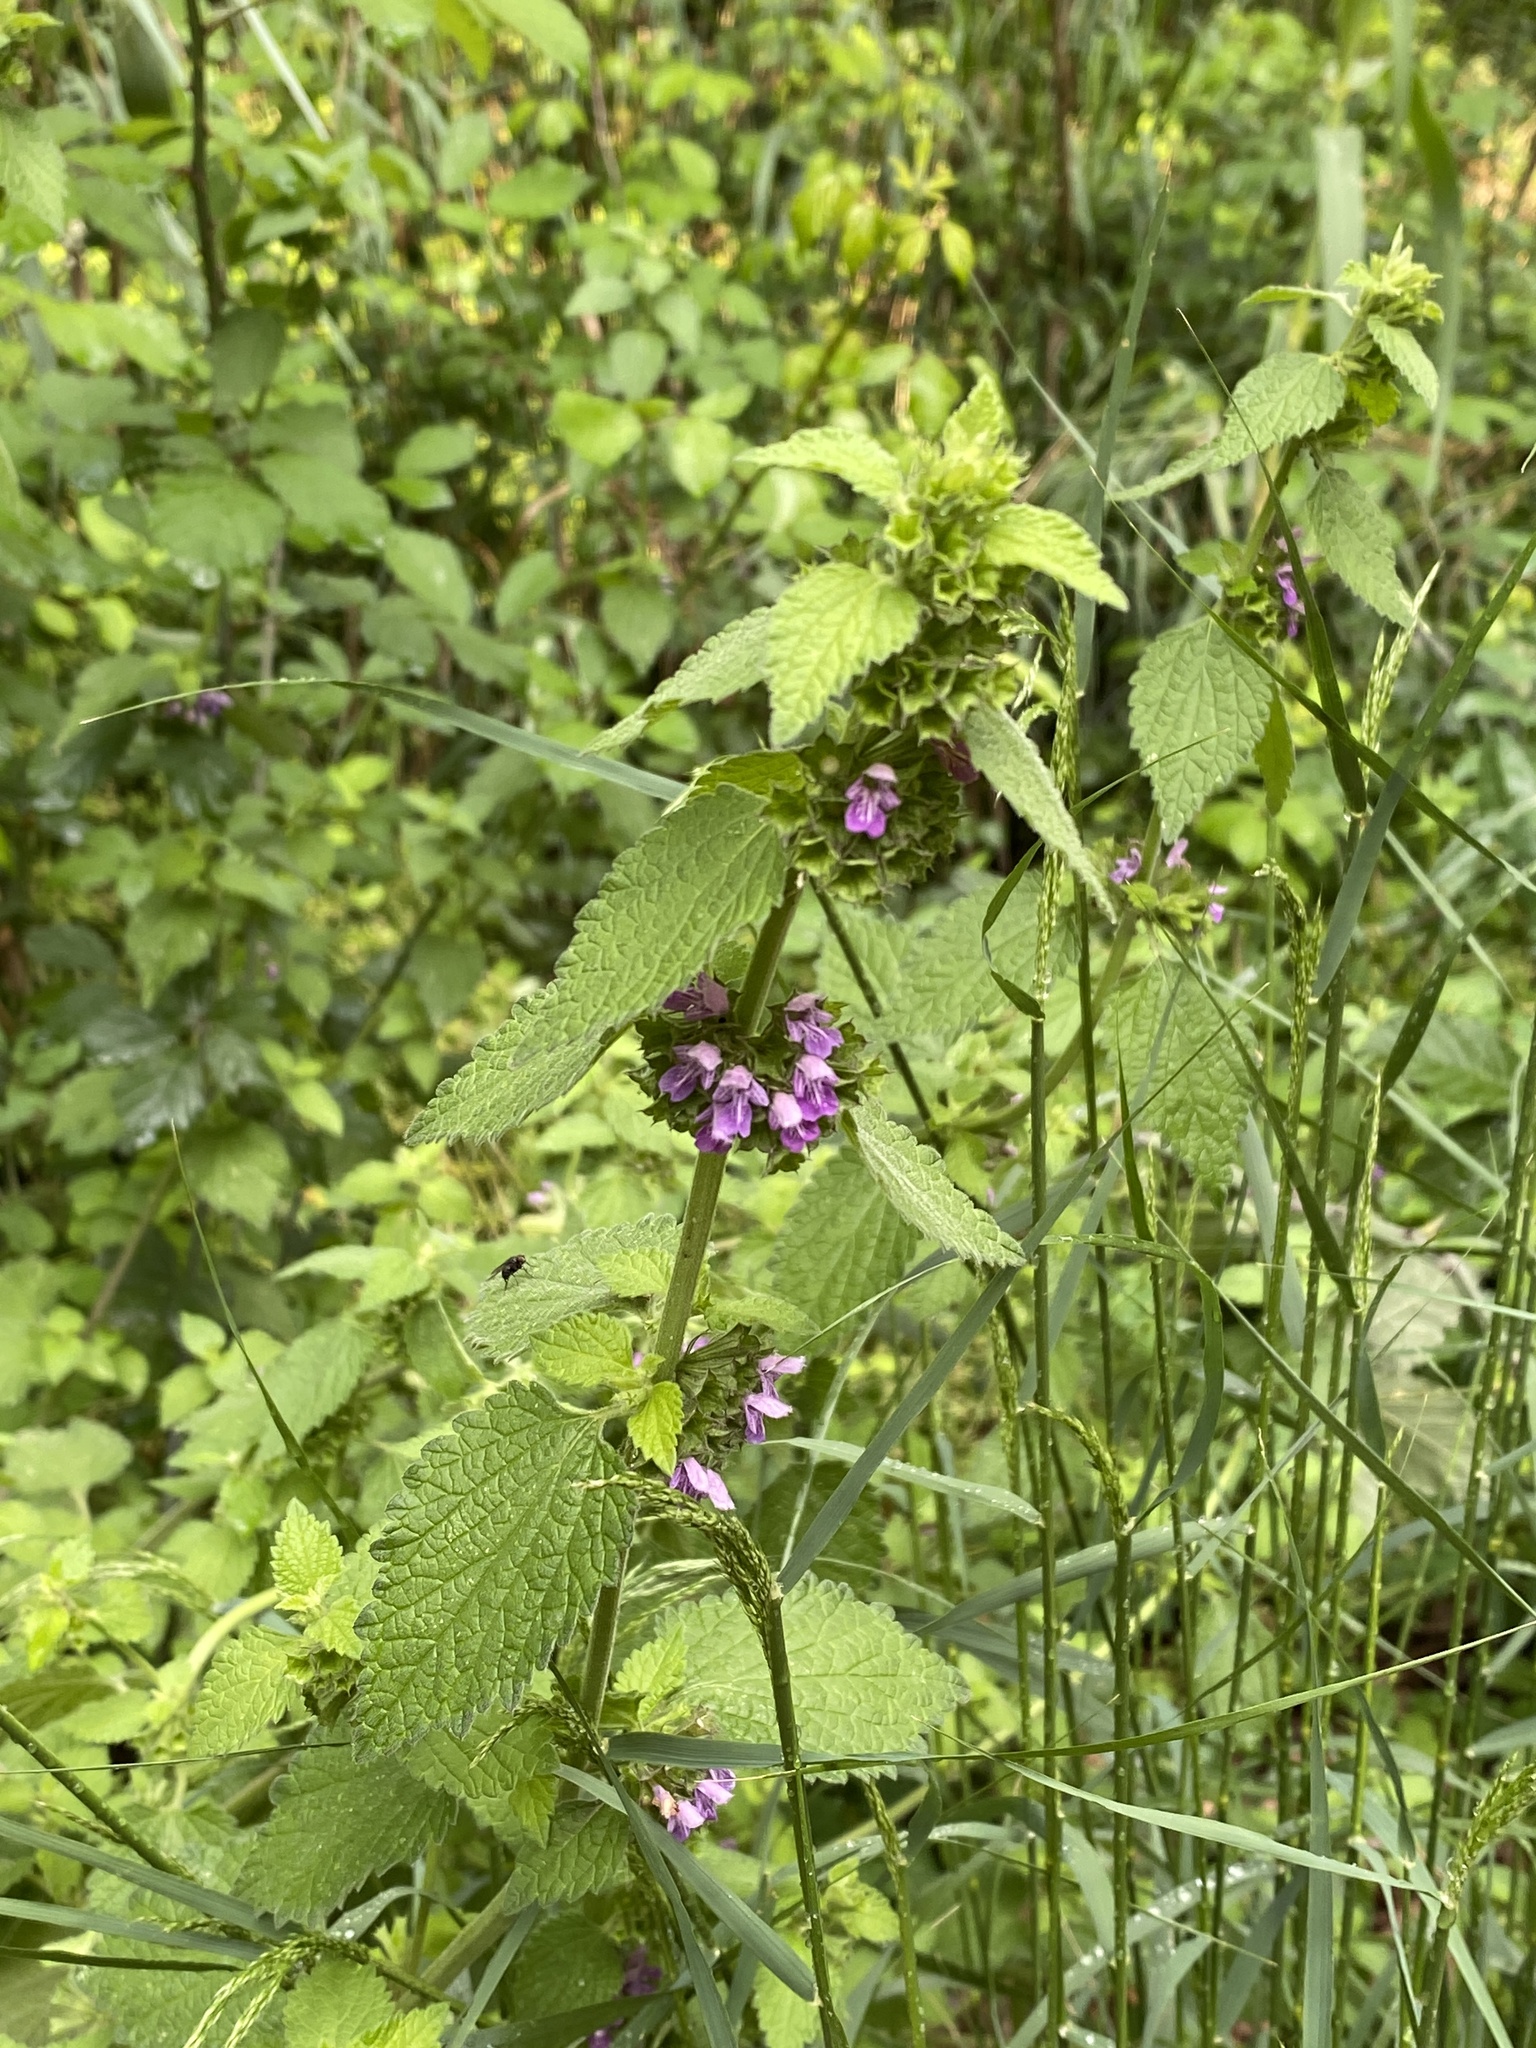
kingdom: Plantae
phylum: Tracheophyta
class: Magnoliopsida
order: Lamiales
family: Lamiaceae
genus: Ballota
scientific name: Ballota nigra
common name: Black horehound
